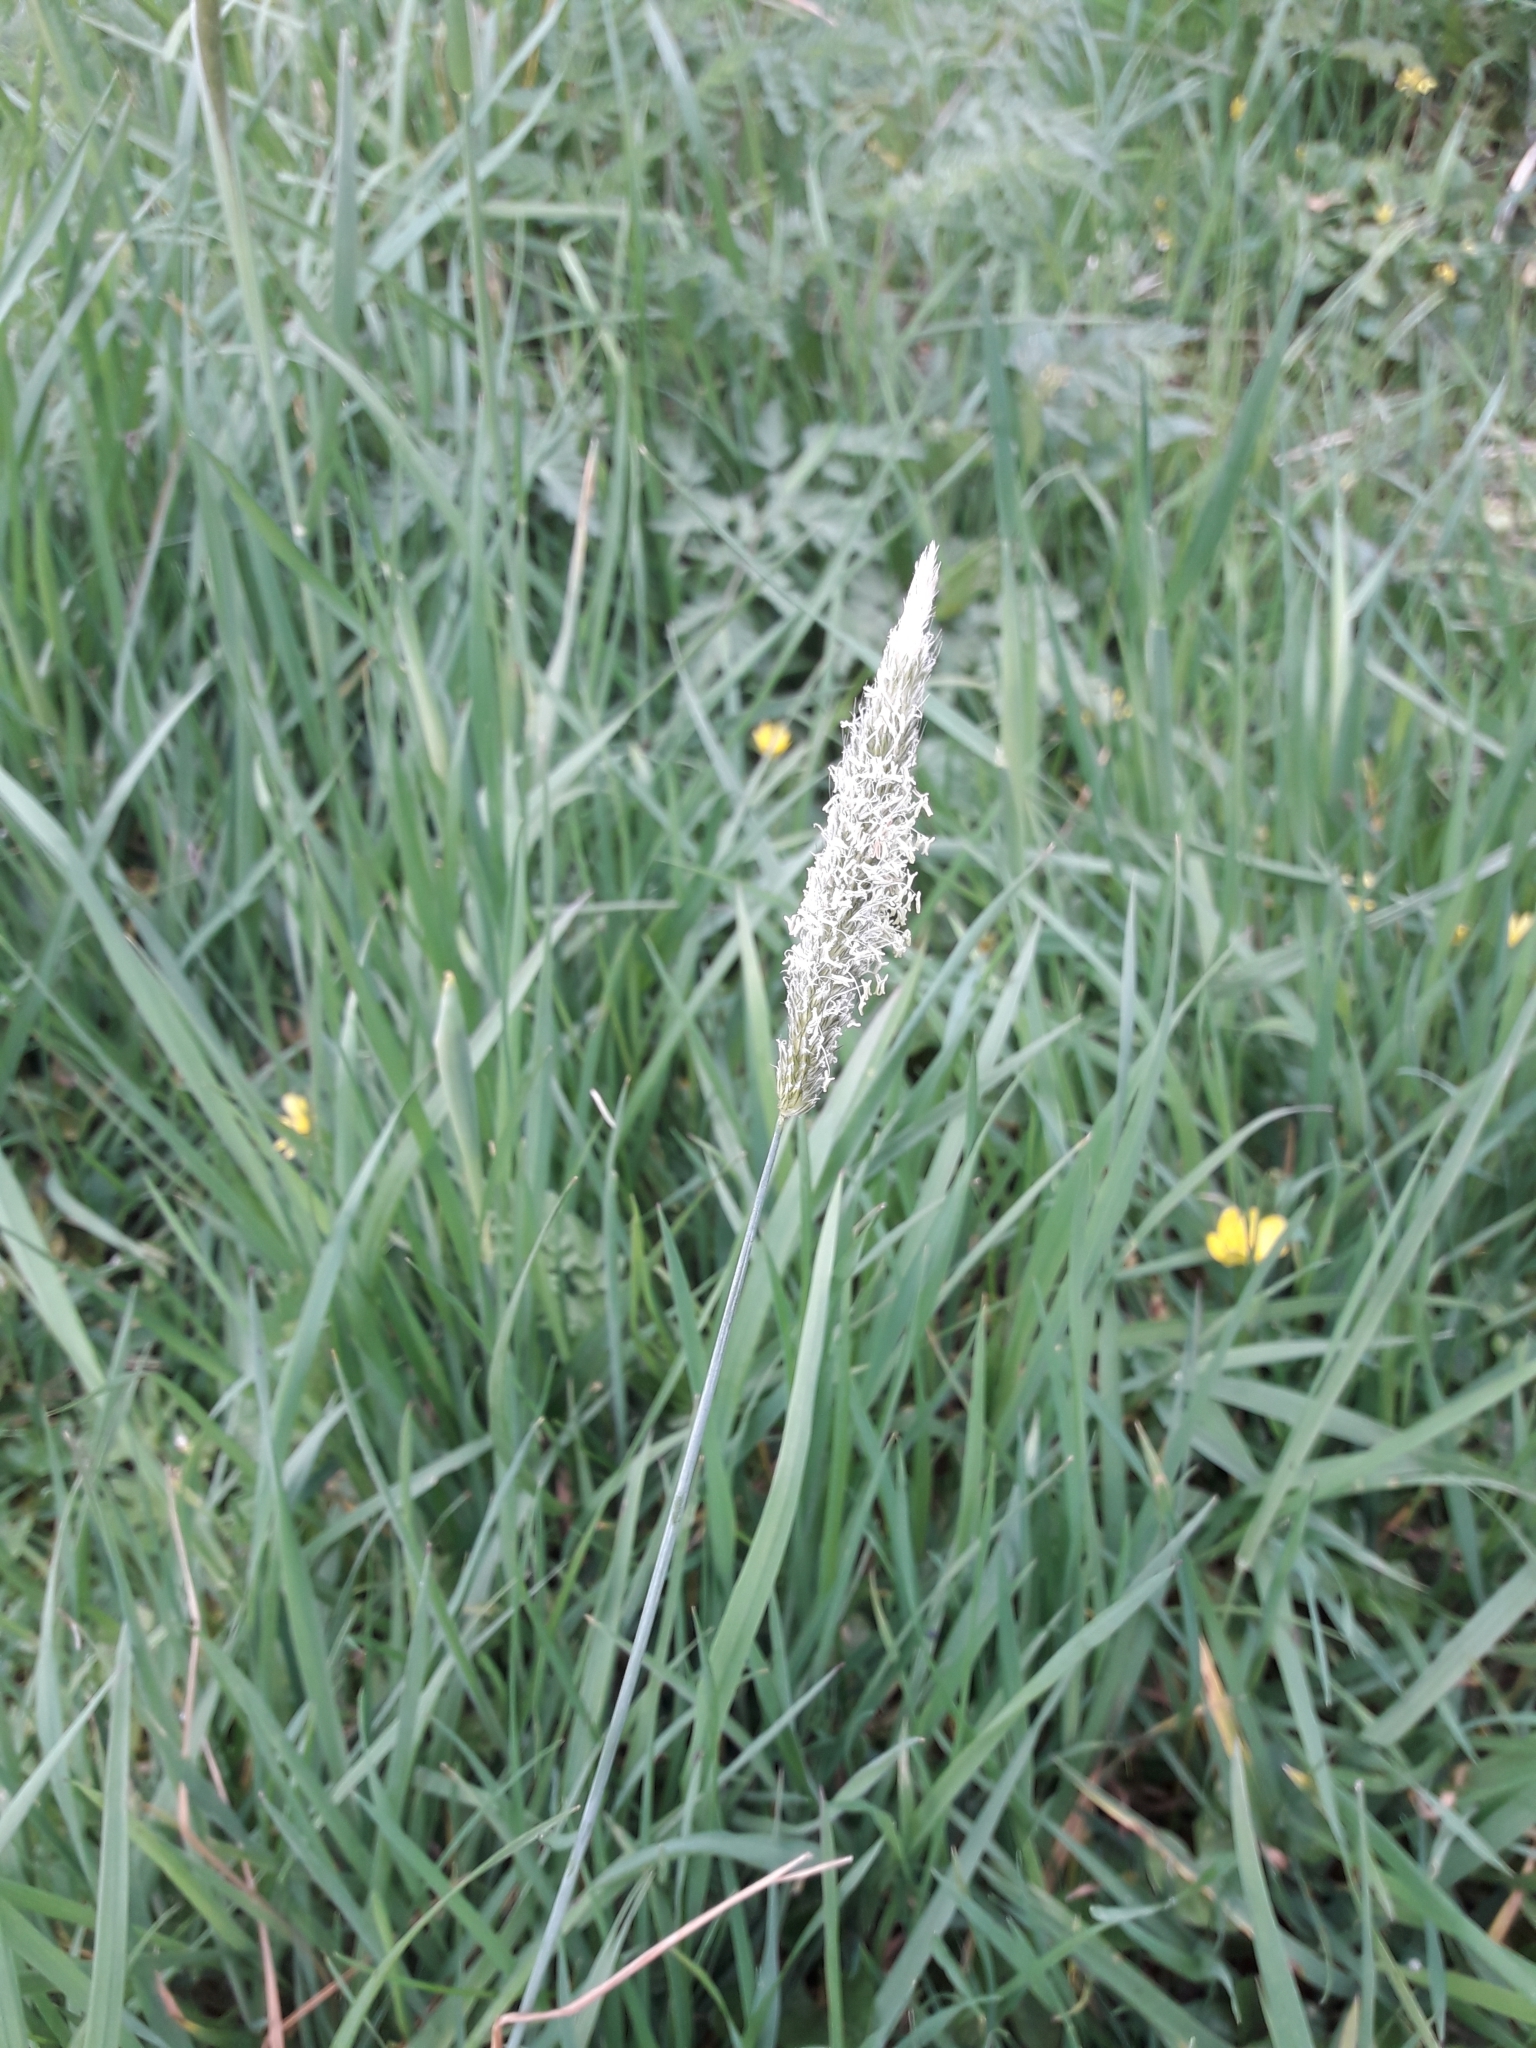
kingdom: Plantae
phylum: Tracheophyta
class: Liliopsida
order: Poales
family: Poaceae
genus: Alopecurus
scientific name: Alopecurus pratensis
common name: Meadow foxtail
